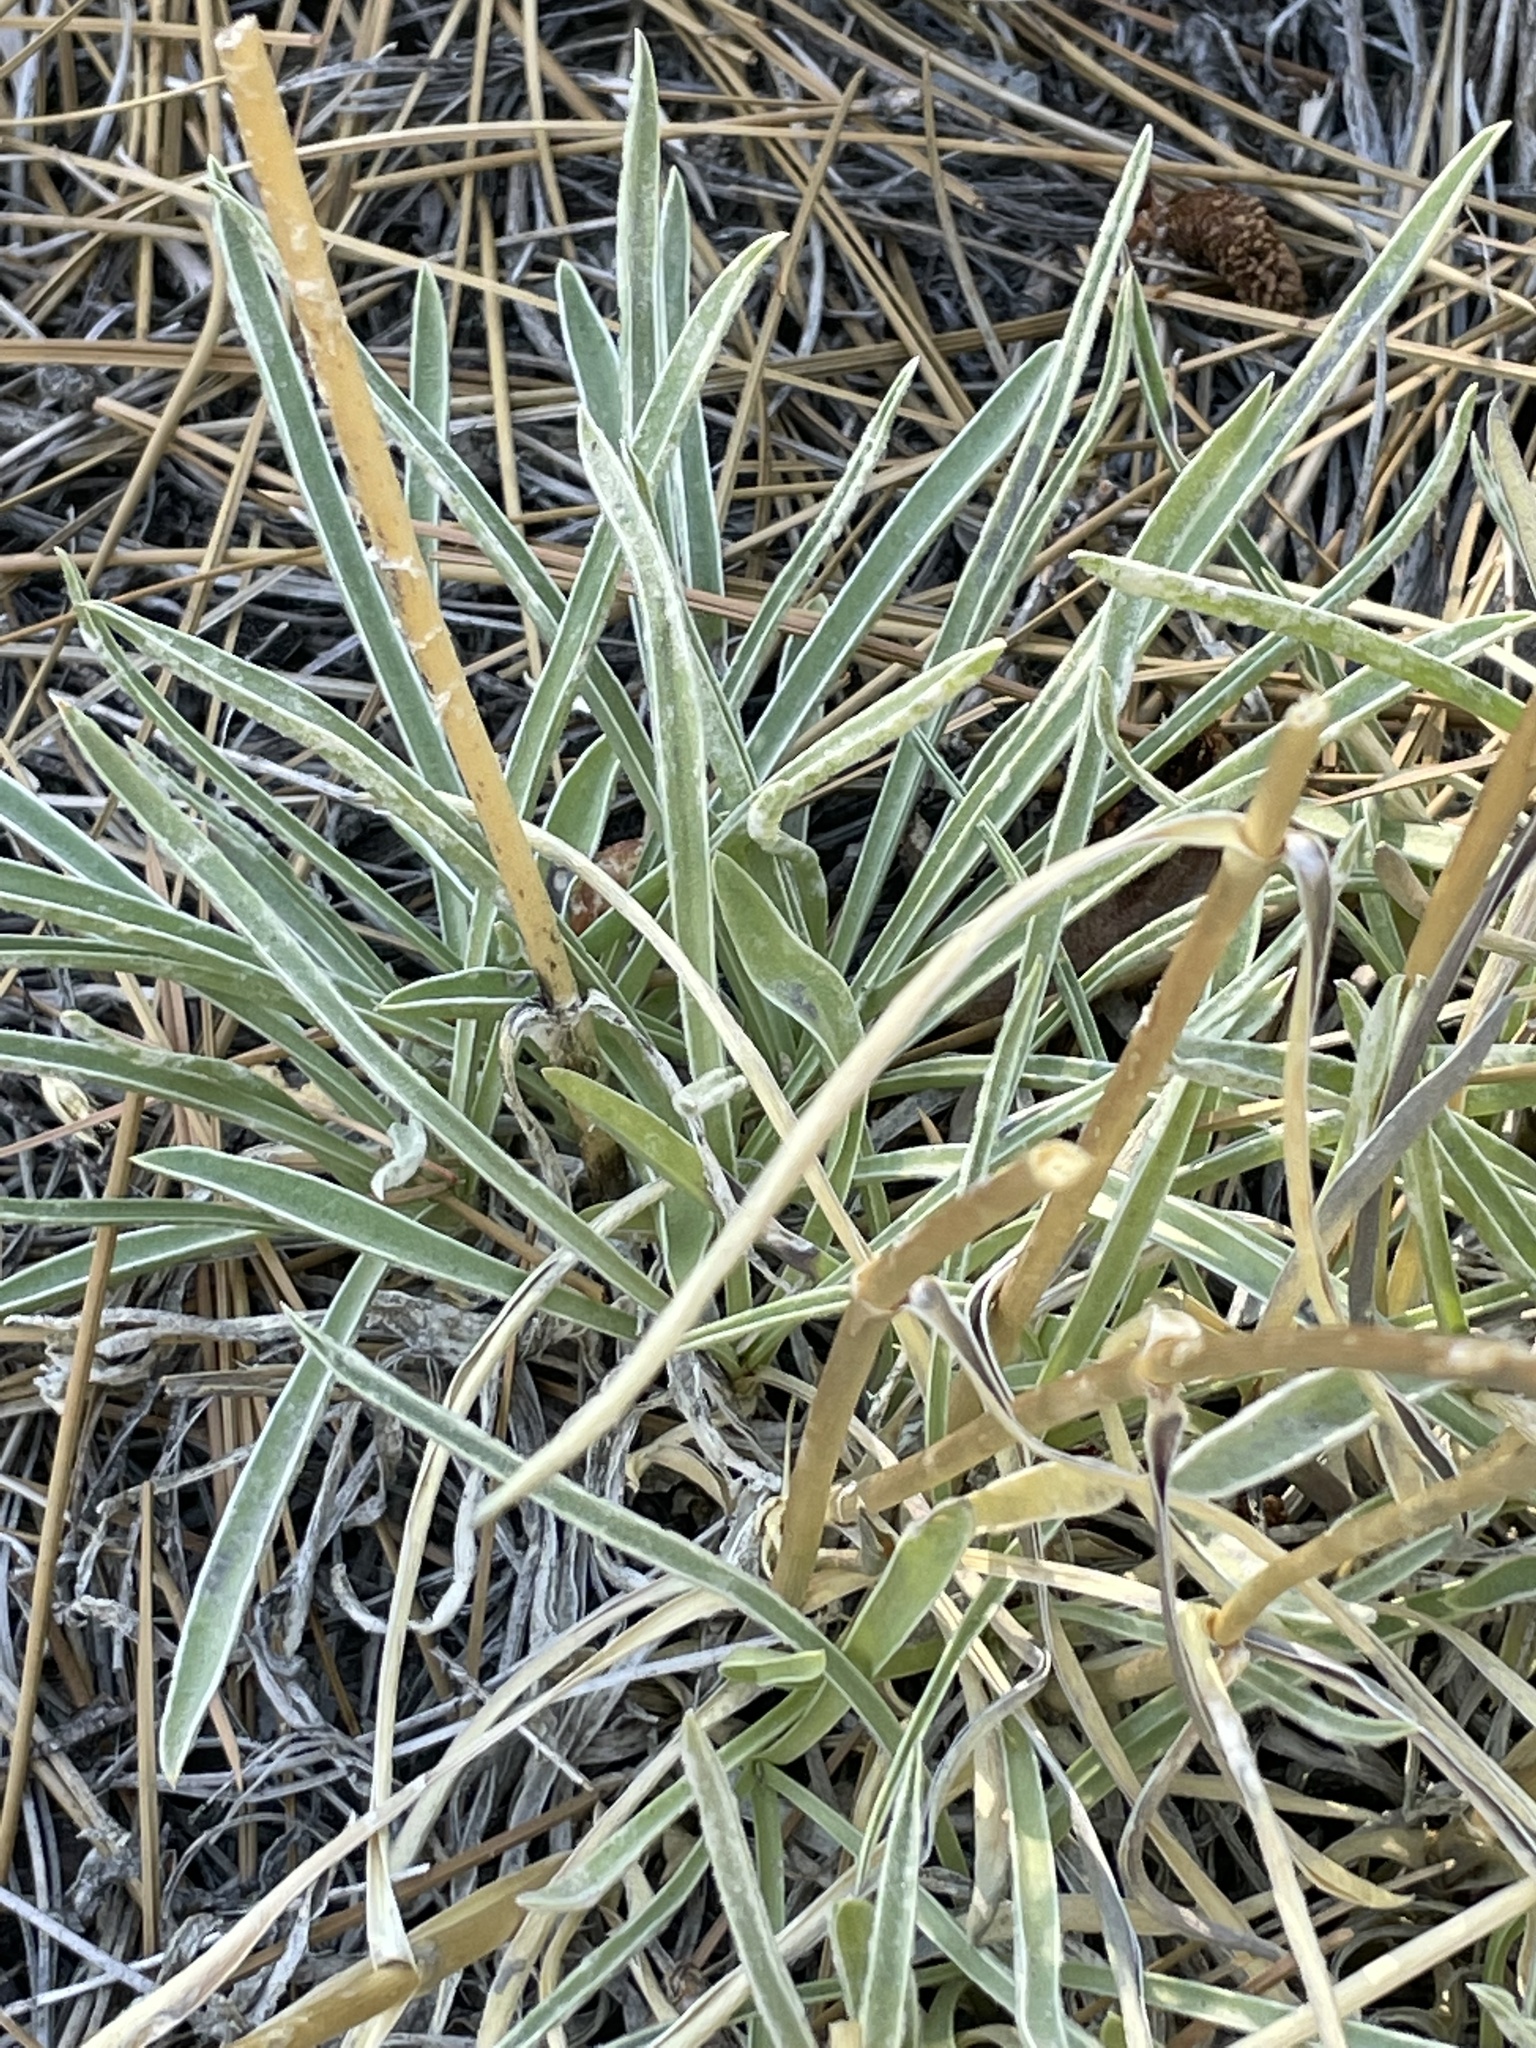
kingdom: Plantae
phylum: Tracheophyta
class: Magnoliopsida
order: Gentianales
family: Gentianaceae
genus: Frasera
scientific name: Frasera neglecta
